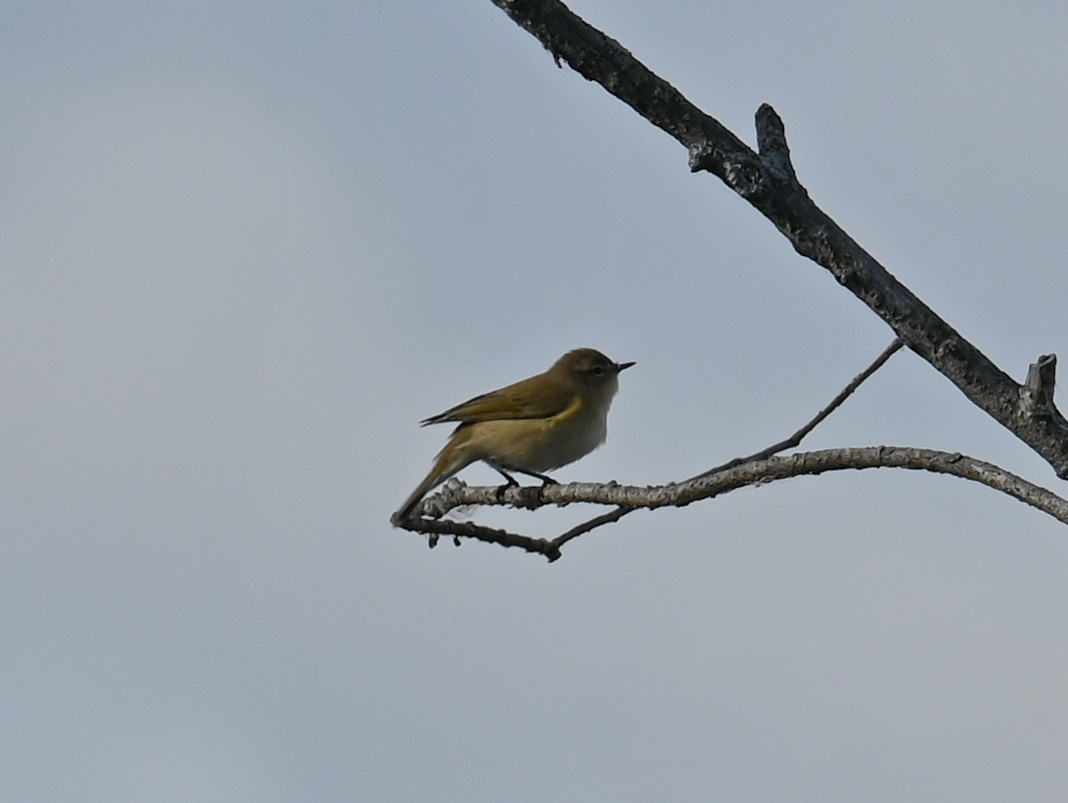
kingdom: Animalia
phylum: Chordata
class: Aves
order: Passeriformes
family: Phylloscopidae
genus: Phylloscopus
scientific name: Phylloscopus collybita
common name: Common chiffchaff
